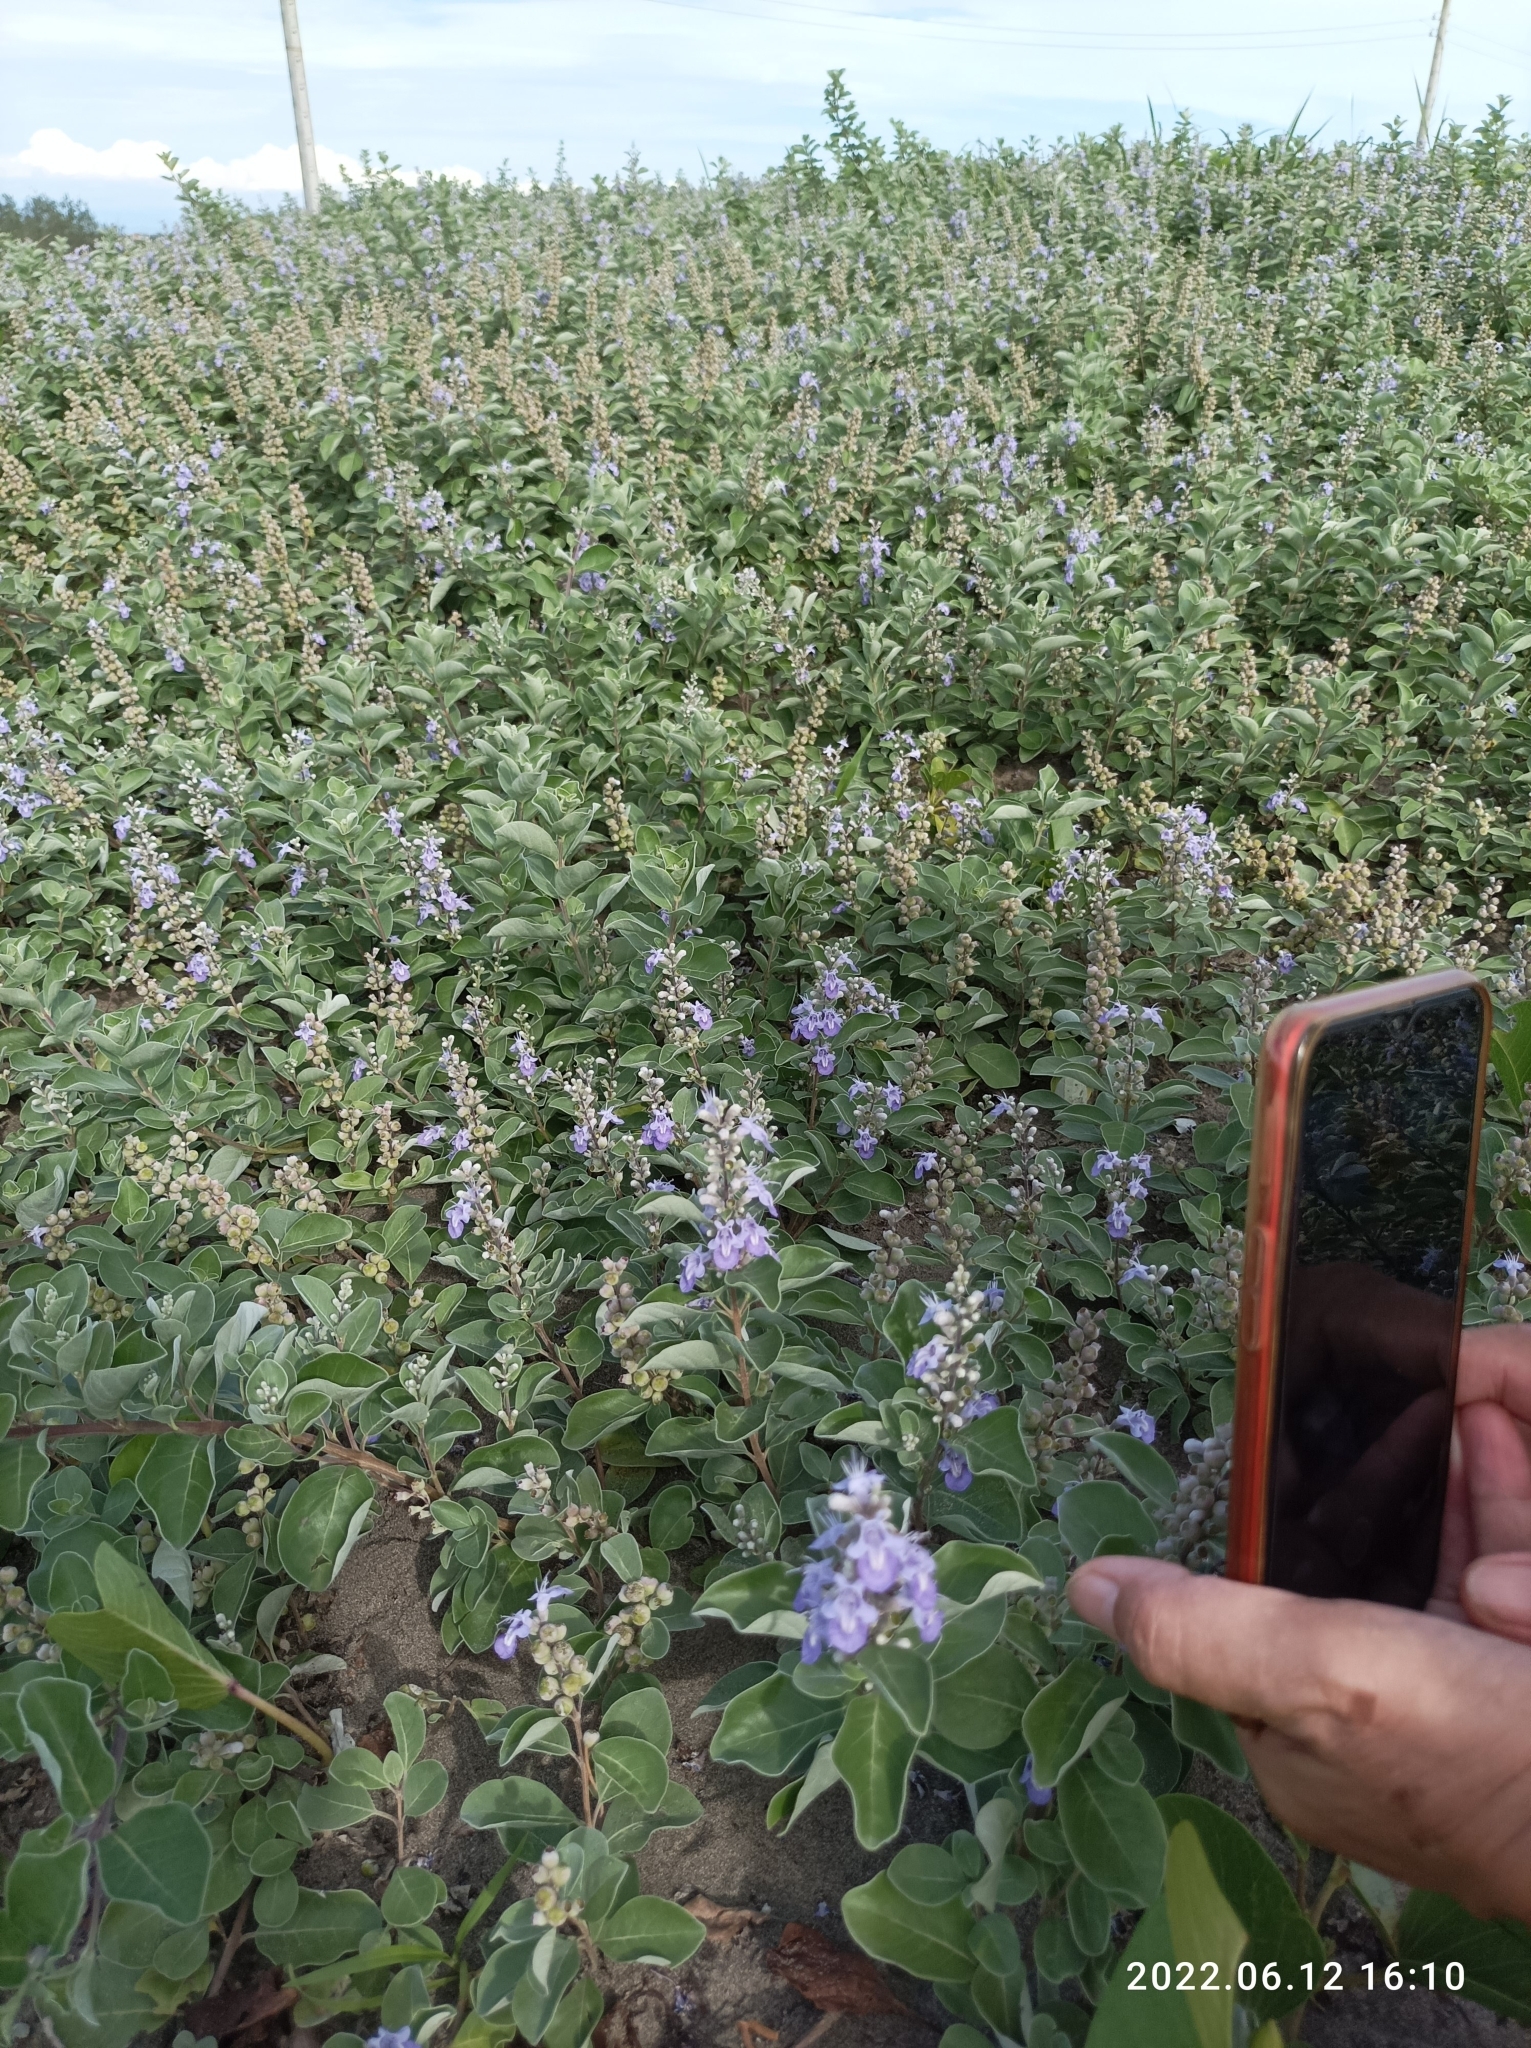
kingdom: Plantae
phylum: Tracheophyta
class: Magnoliopsida
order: Lamiales
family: Lamiaceae
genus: Vitex
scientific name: Vitex rotundifolia
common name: Beach vitex
